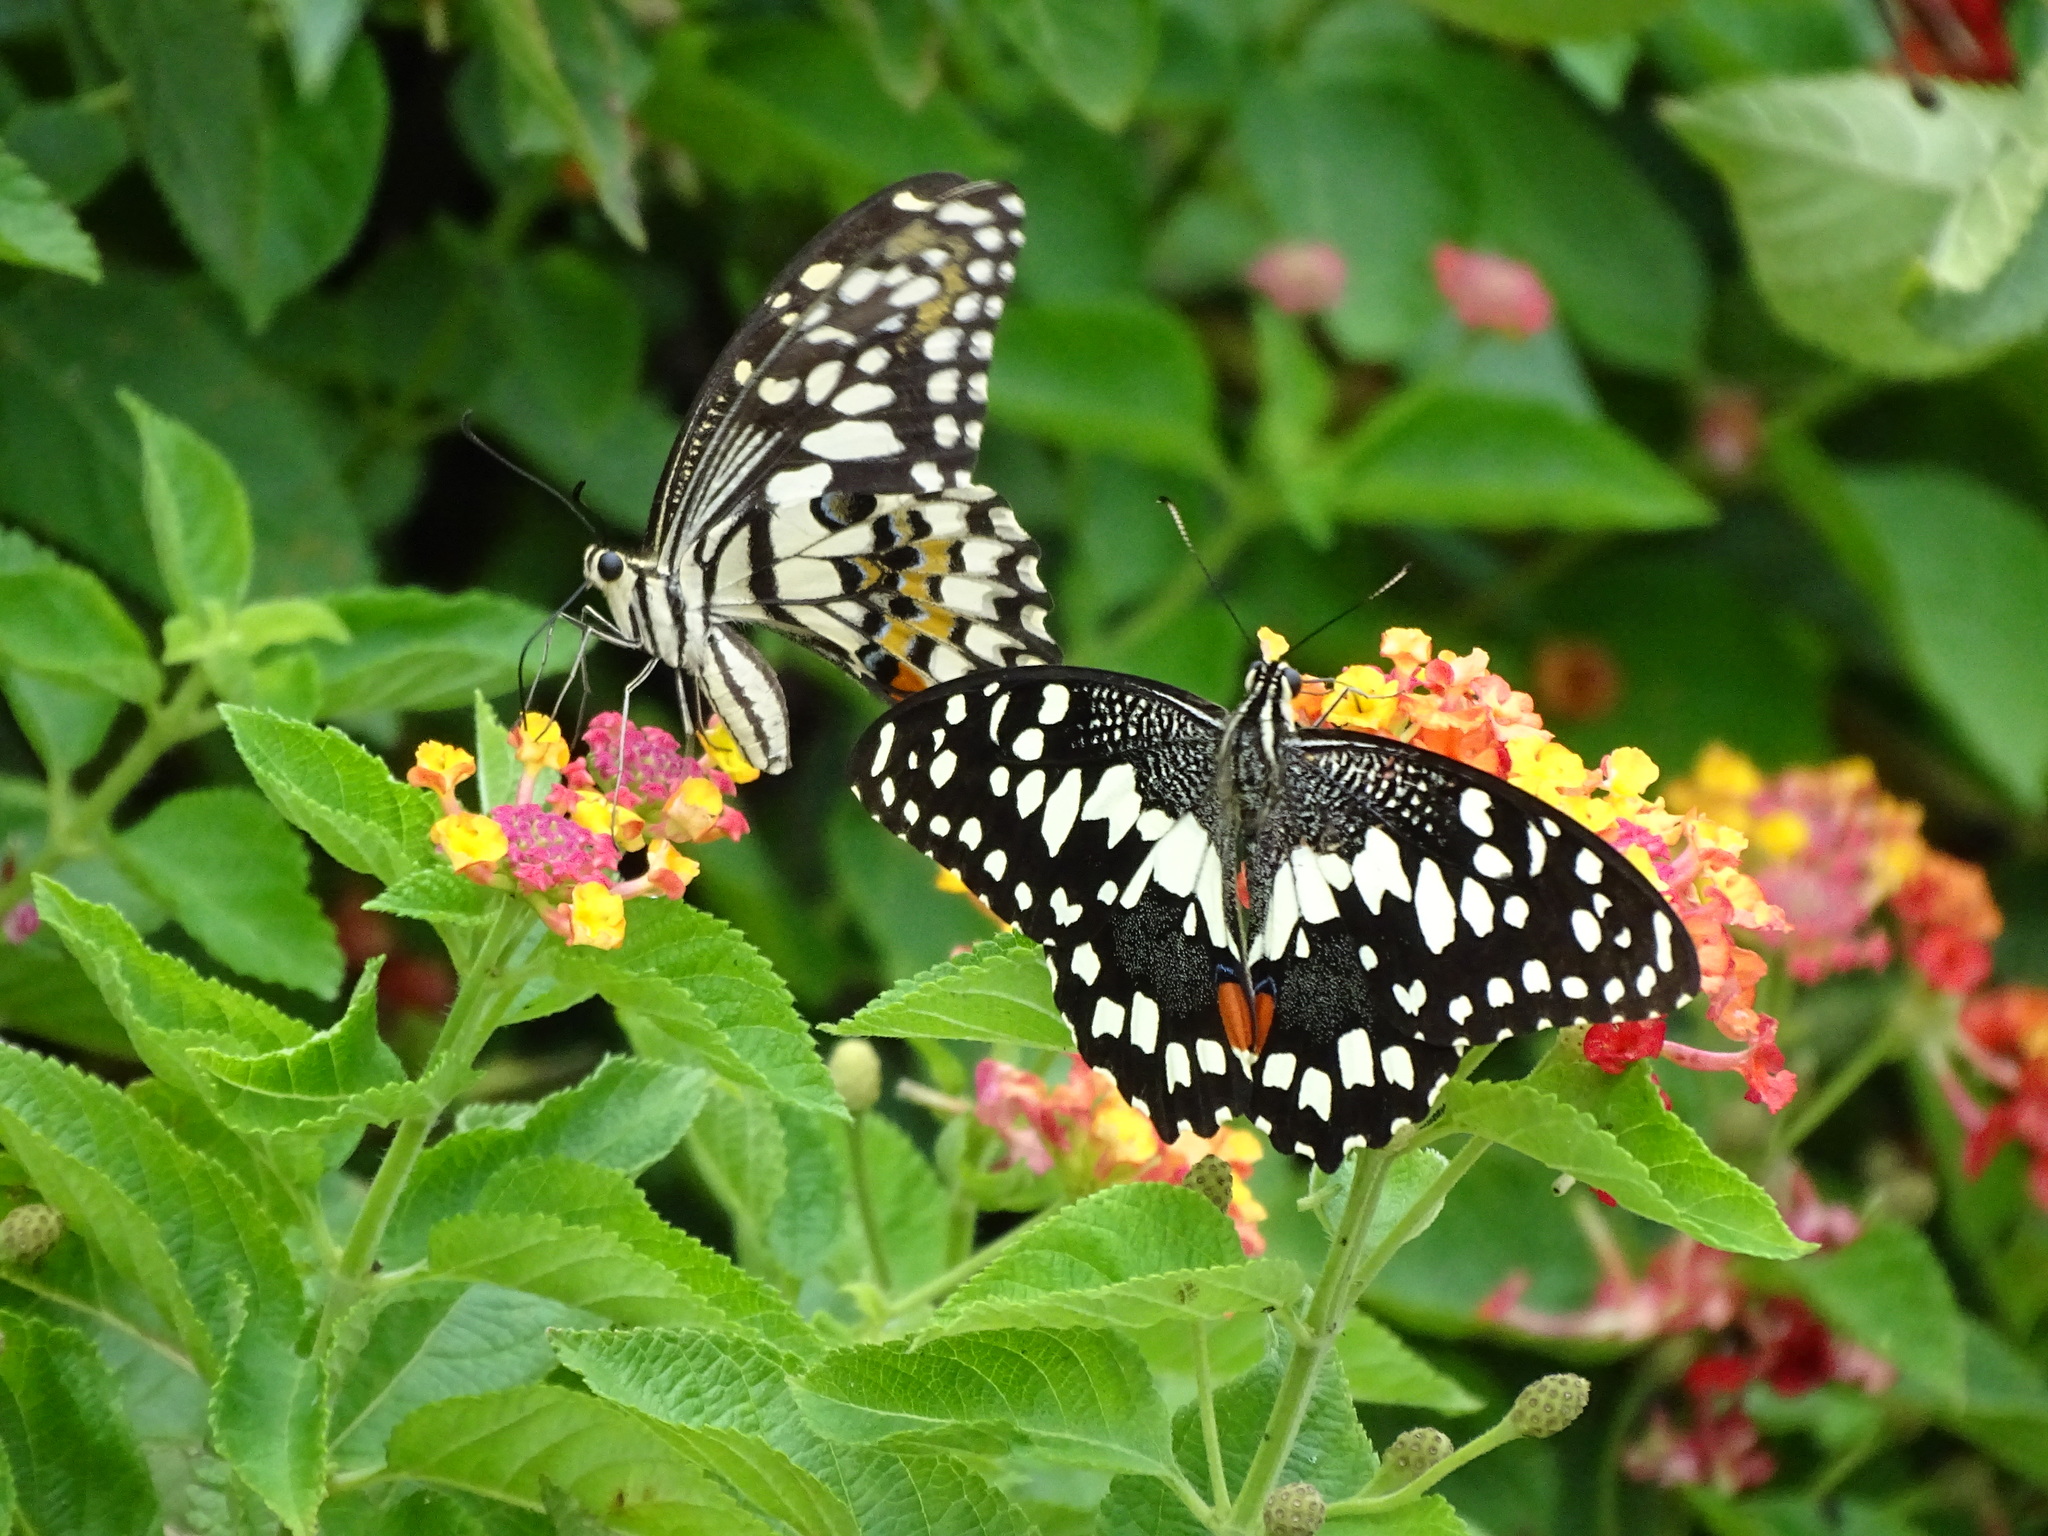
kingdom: Animalia
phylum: Arthropoda
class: Insecta
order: Lepidoptera
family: Papilionidae
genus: Papilio
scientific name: Papilio demoleus
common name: Lime butterfly
